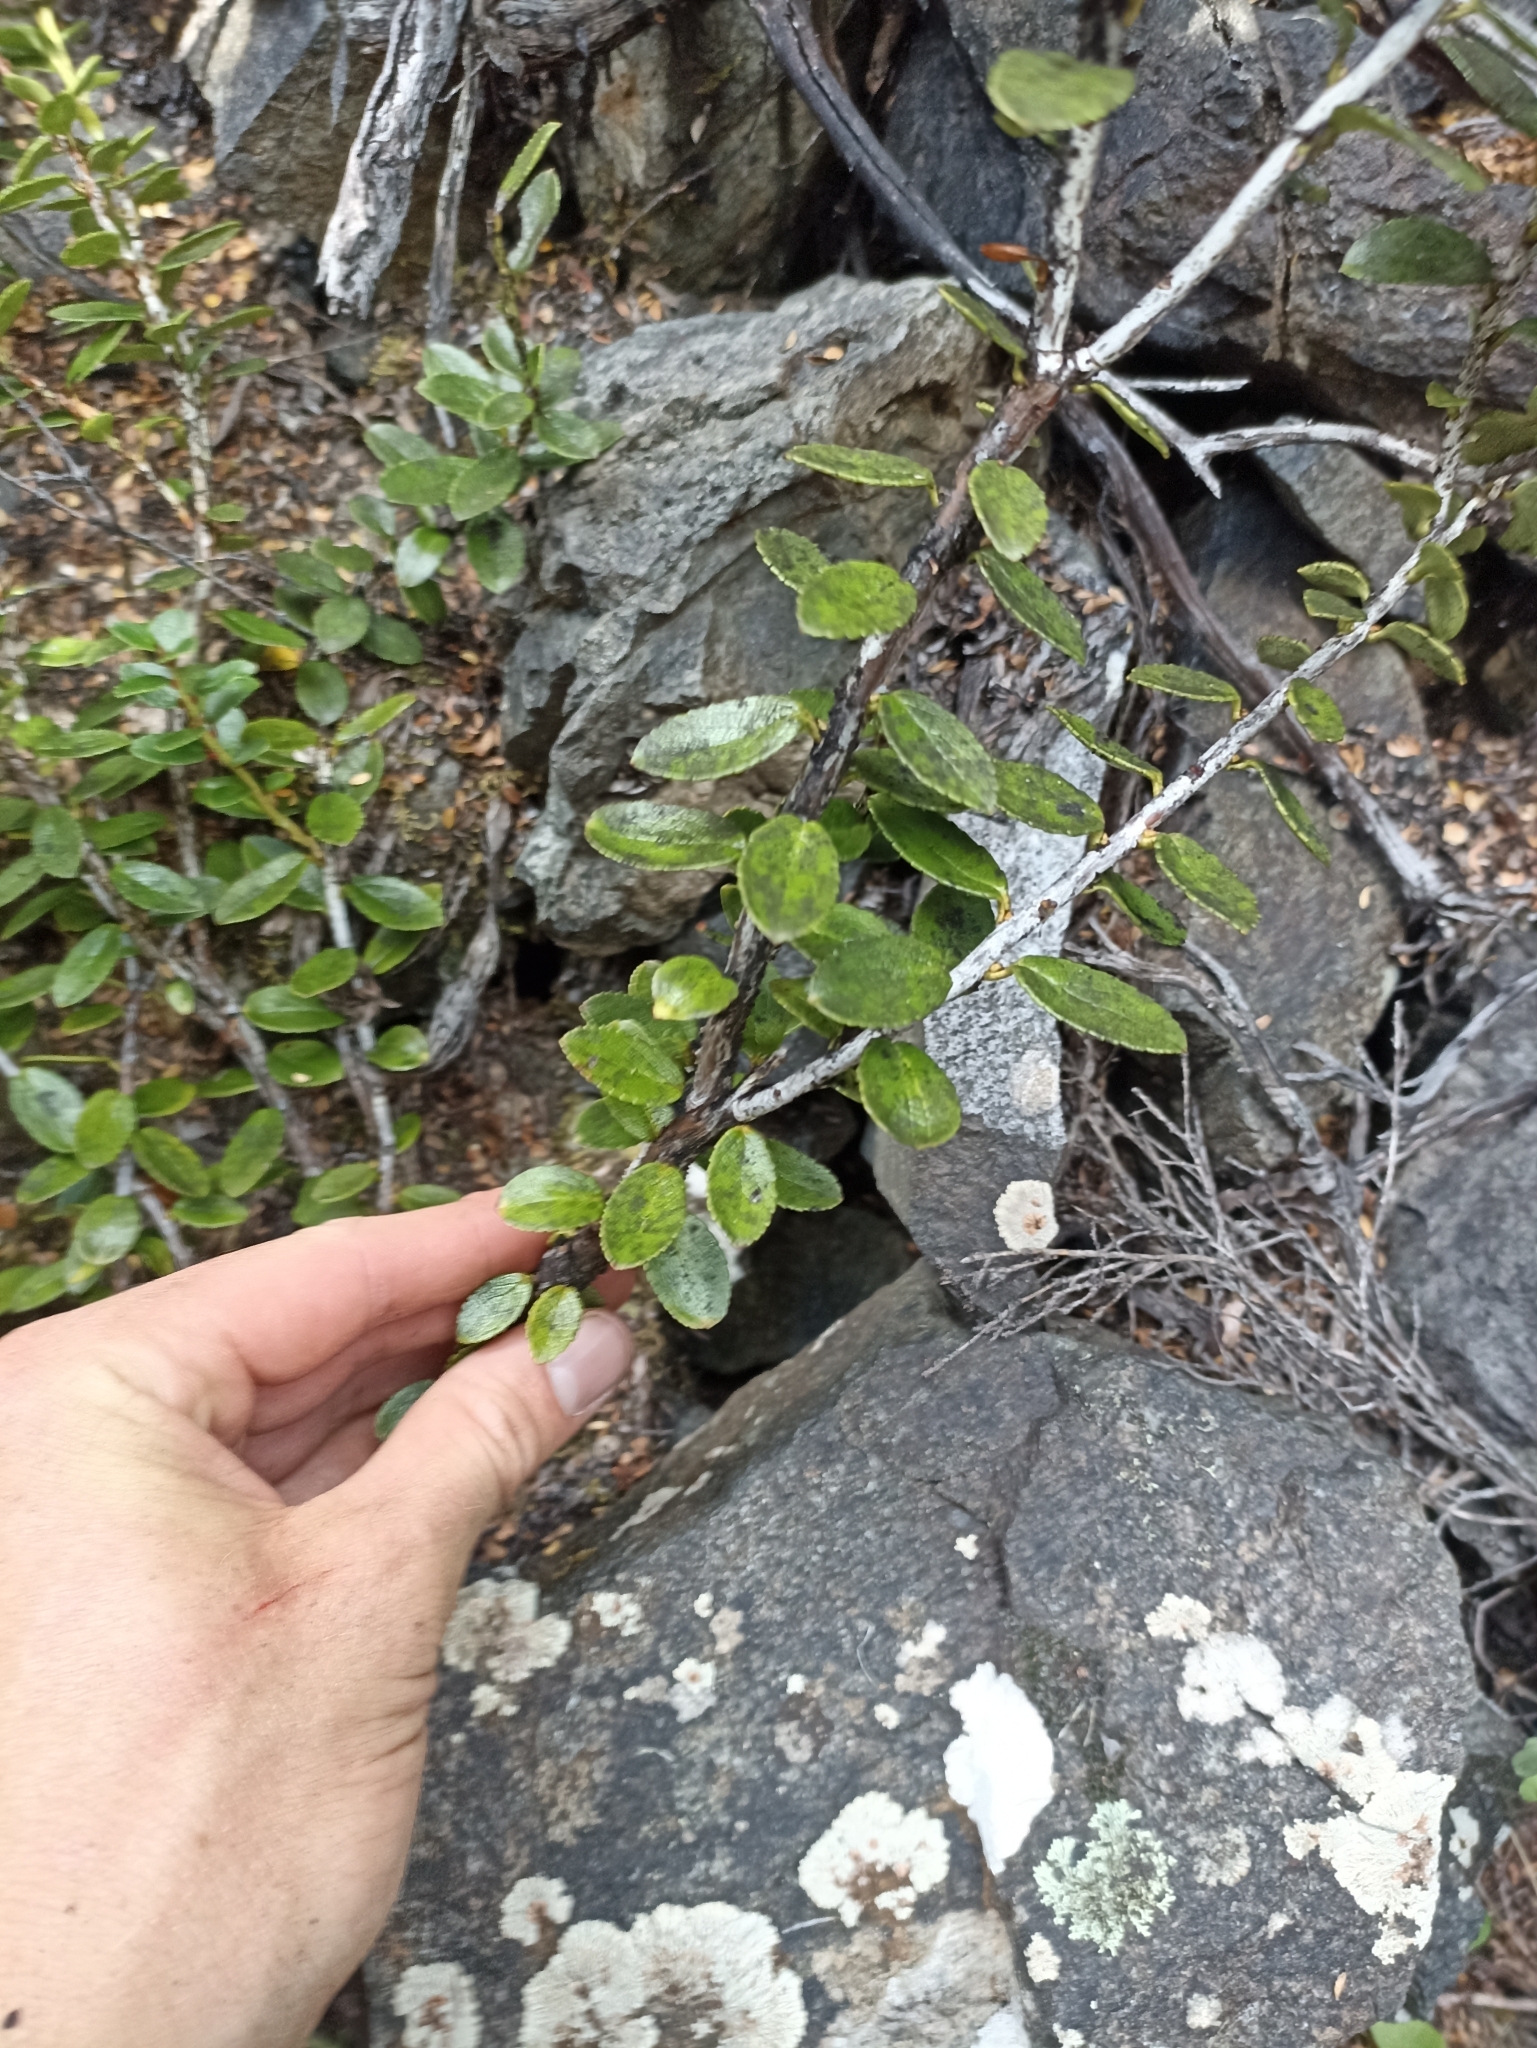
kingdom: Plantae
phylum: Tracheophyta
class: Magnoliopsida
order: Ericales
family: Ericaceae
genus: Gaultheria
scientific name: Gaultheria crassa
